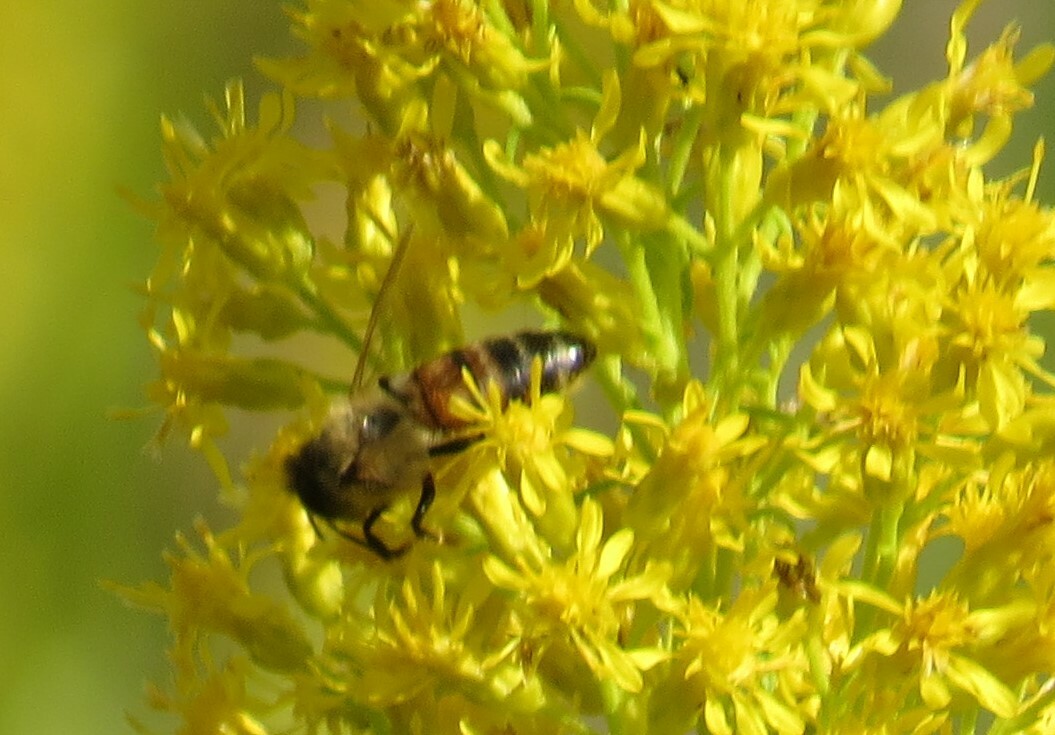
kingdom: Animalia
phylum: Arthropoda
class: Insecta
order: Hymenoptera
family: Apidae
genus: Apis
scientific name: Apis mellifera
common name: Honey bee
